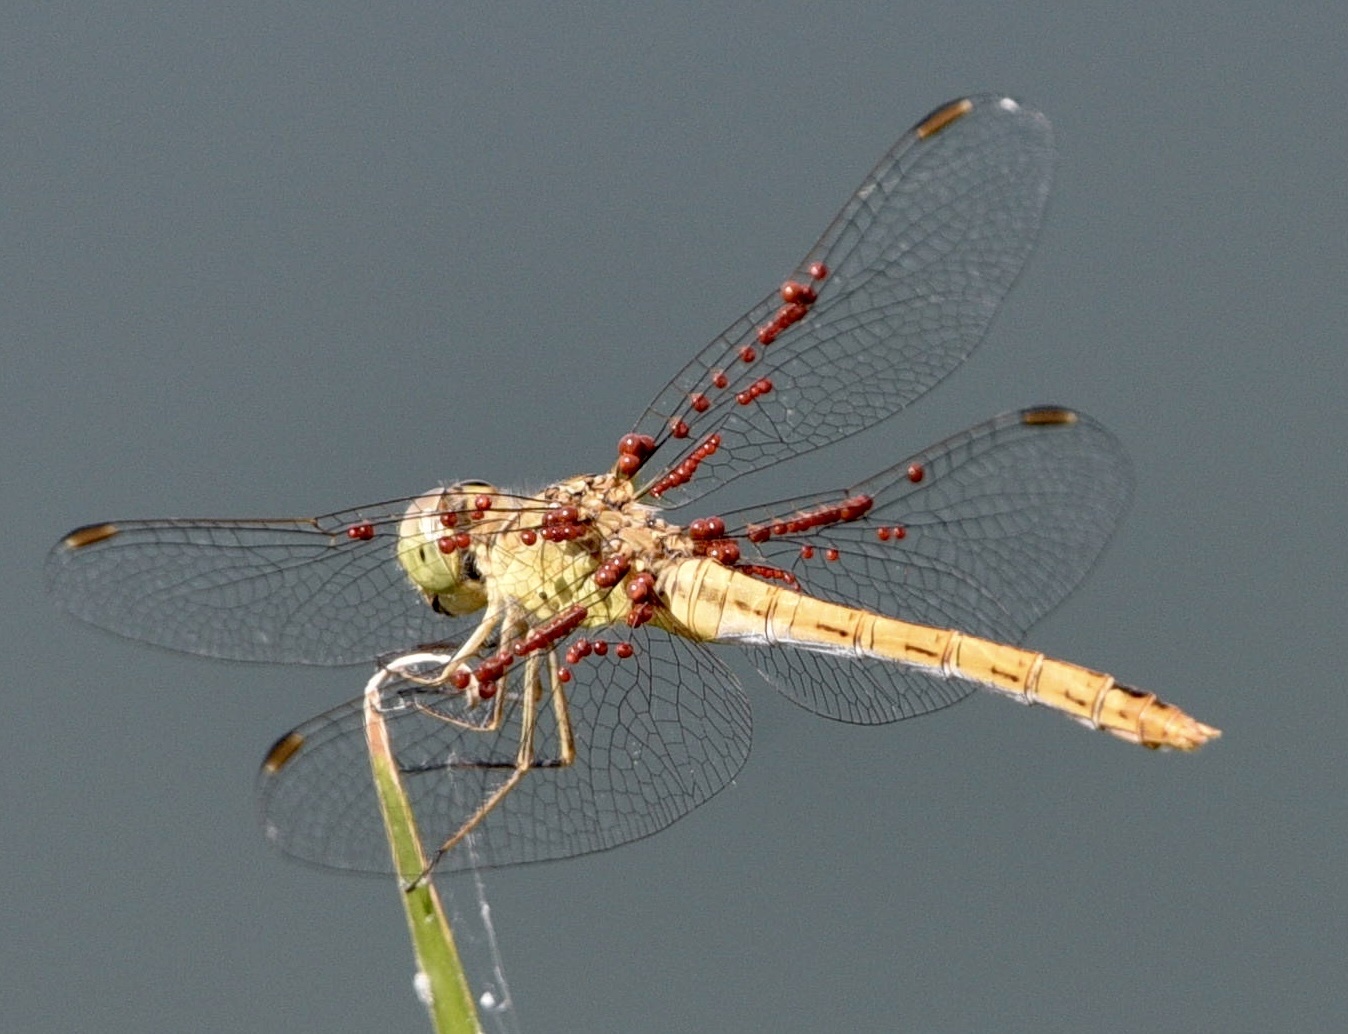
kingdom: Animalia
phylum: Arthropoda
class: Insecta
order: Odonata
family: Libellulidae
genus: Sympetrum
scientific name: Sympetrum meridionale
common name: Southern darter
